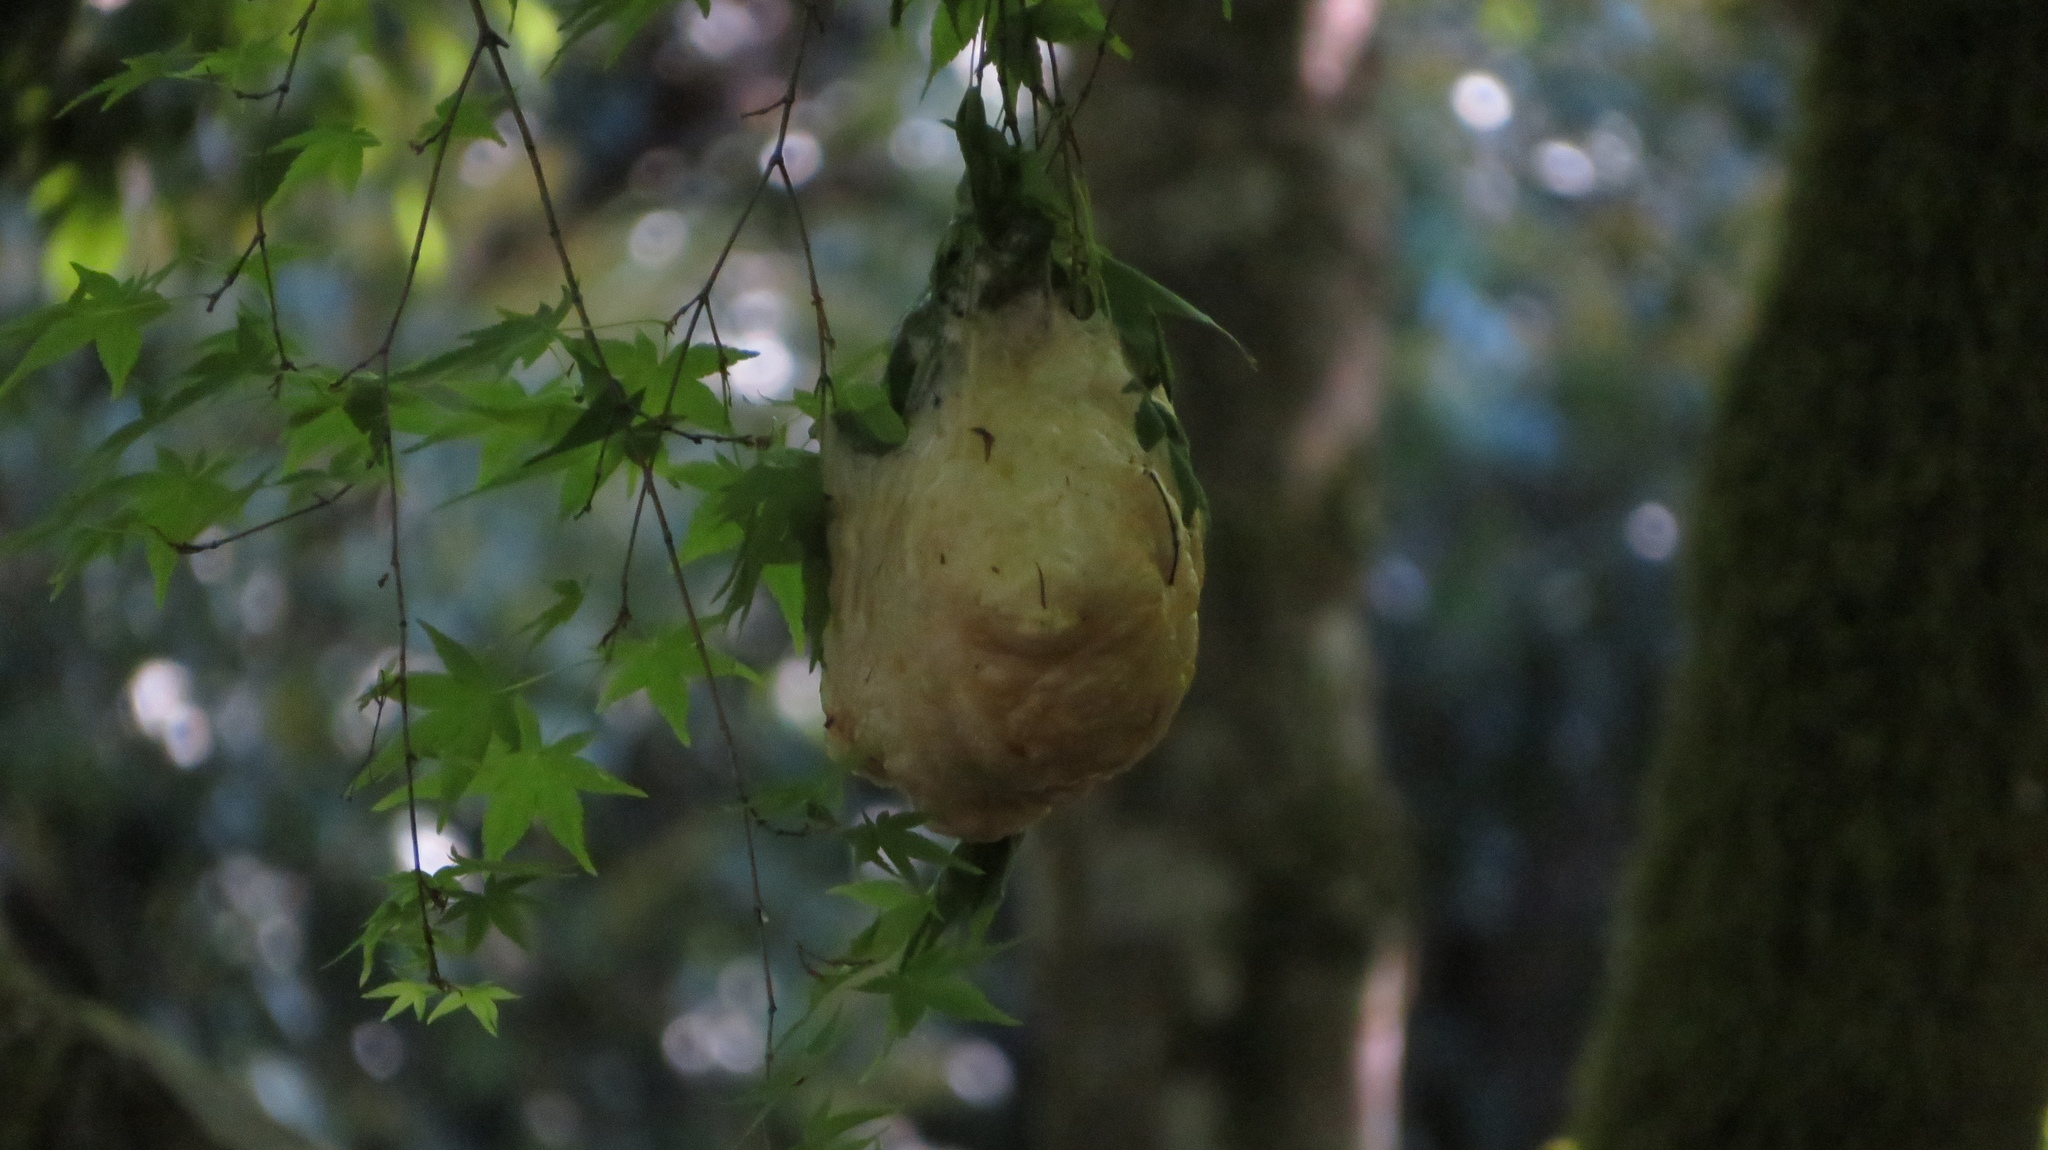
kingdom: Animalia
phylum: Chordata
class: Amphibia
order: Anura
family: Rhacophoridae
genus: Zhangixalus
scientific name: Zhangixalus arboreus
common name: Forest green tree frog
